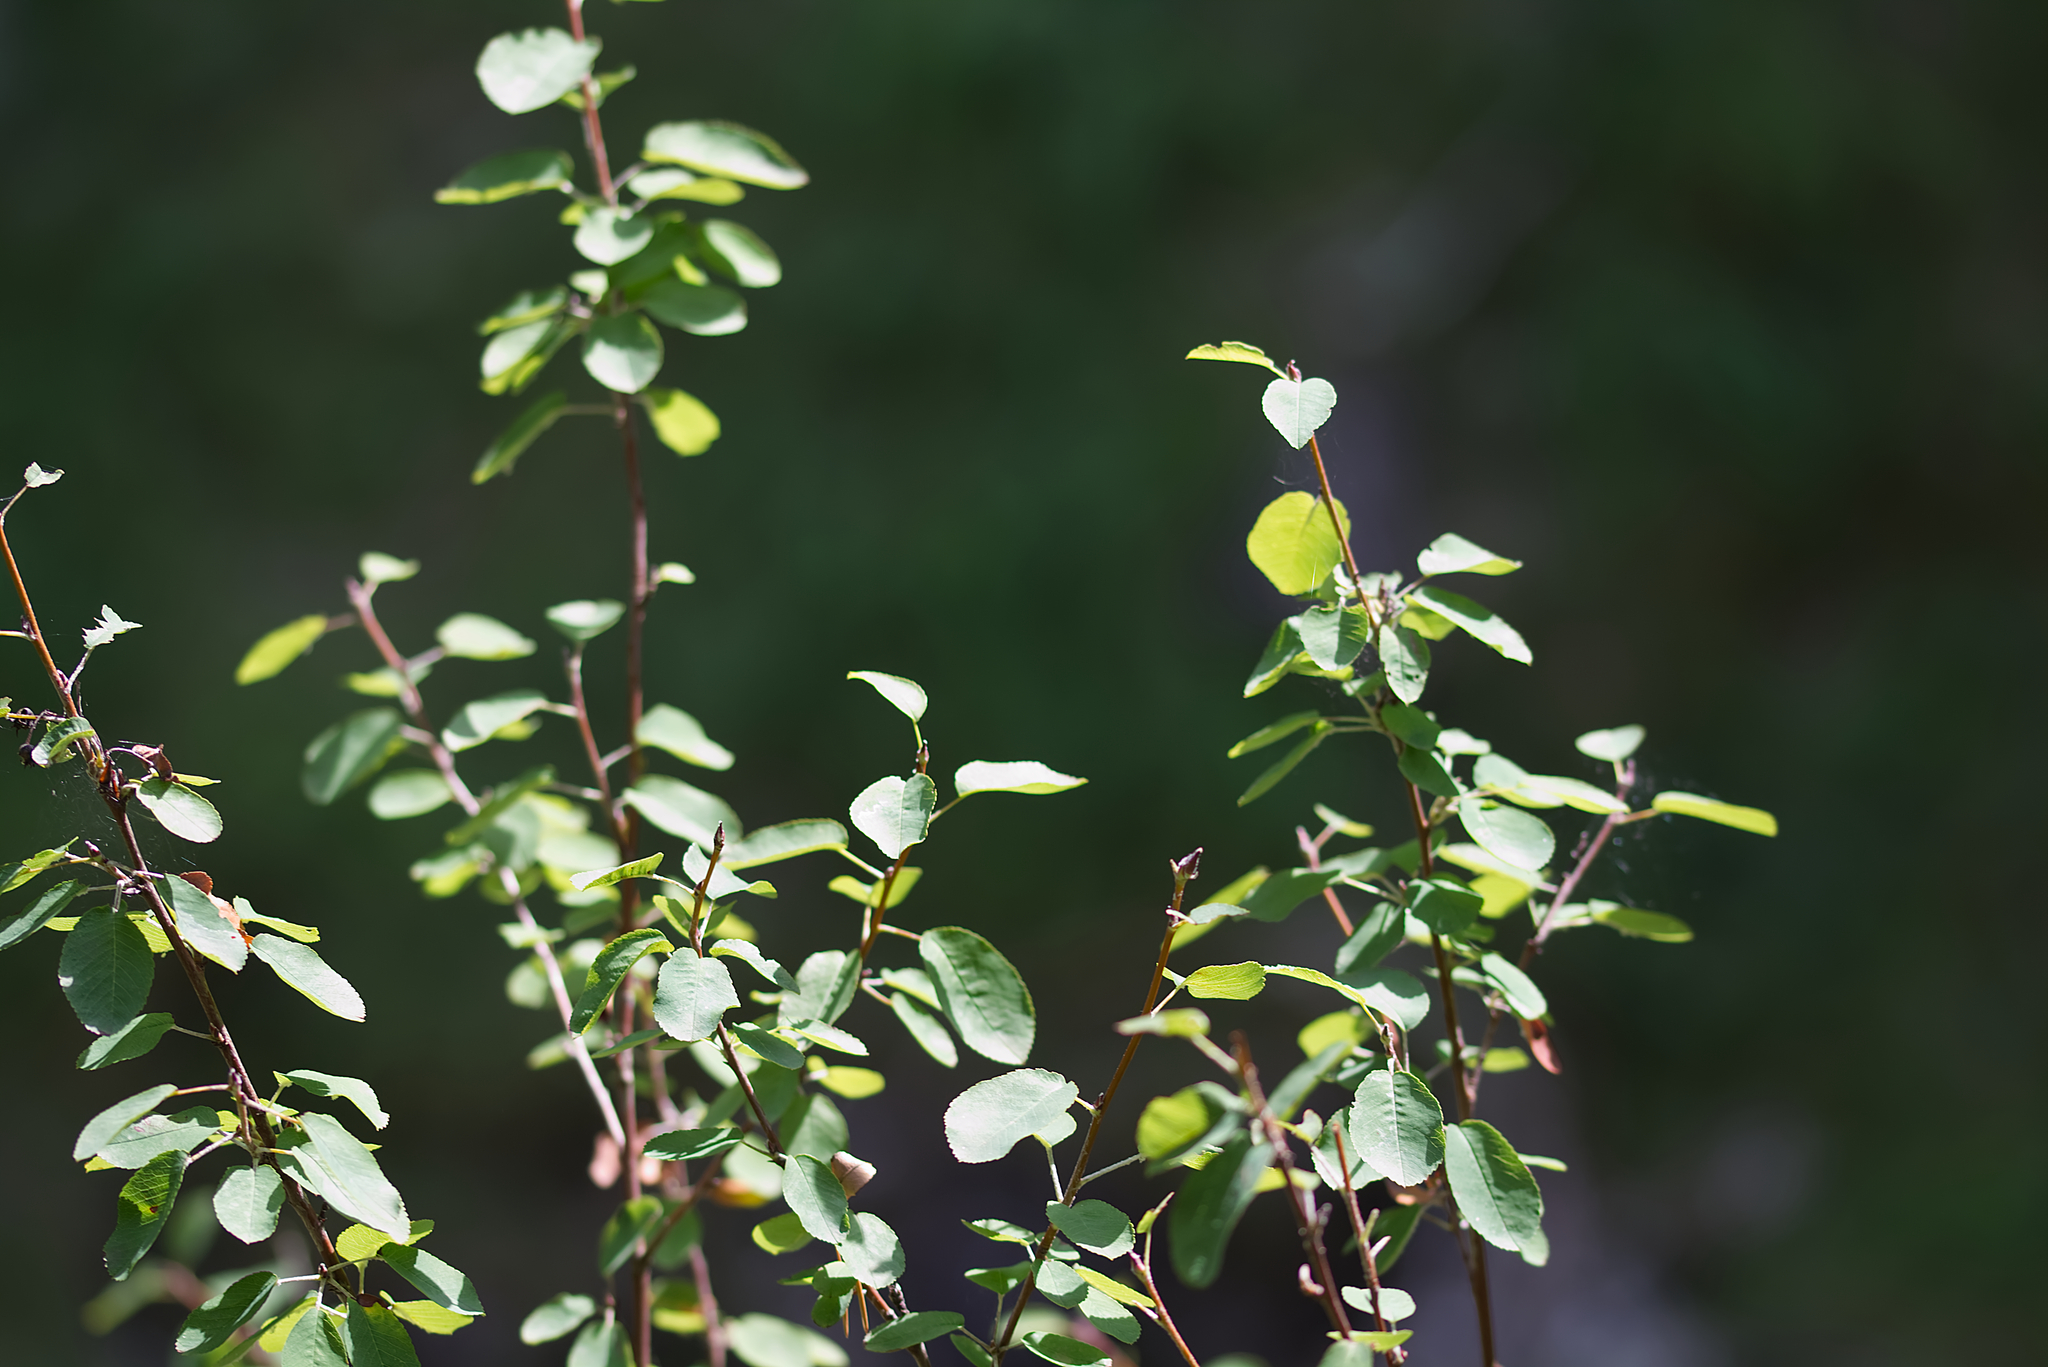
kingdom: Plantae
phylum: Tracheophyta
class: Magnoliopsida
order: Rosales
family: Rosaceae
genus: Amelanchier
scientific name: Amelanchier ovalis
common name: Serviceberry
